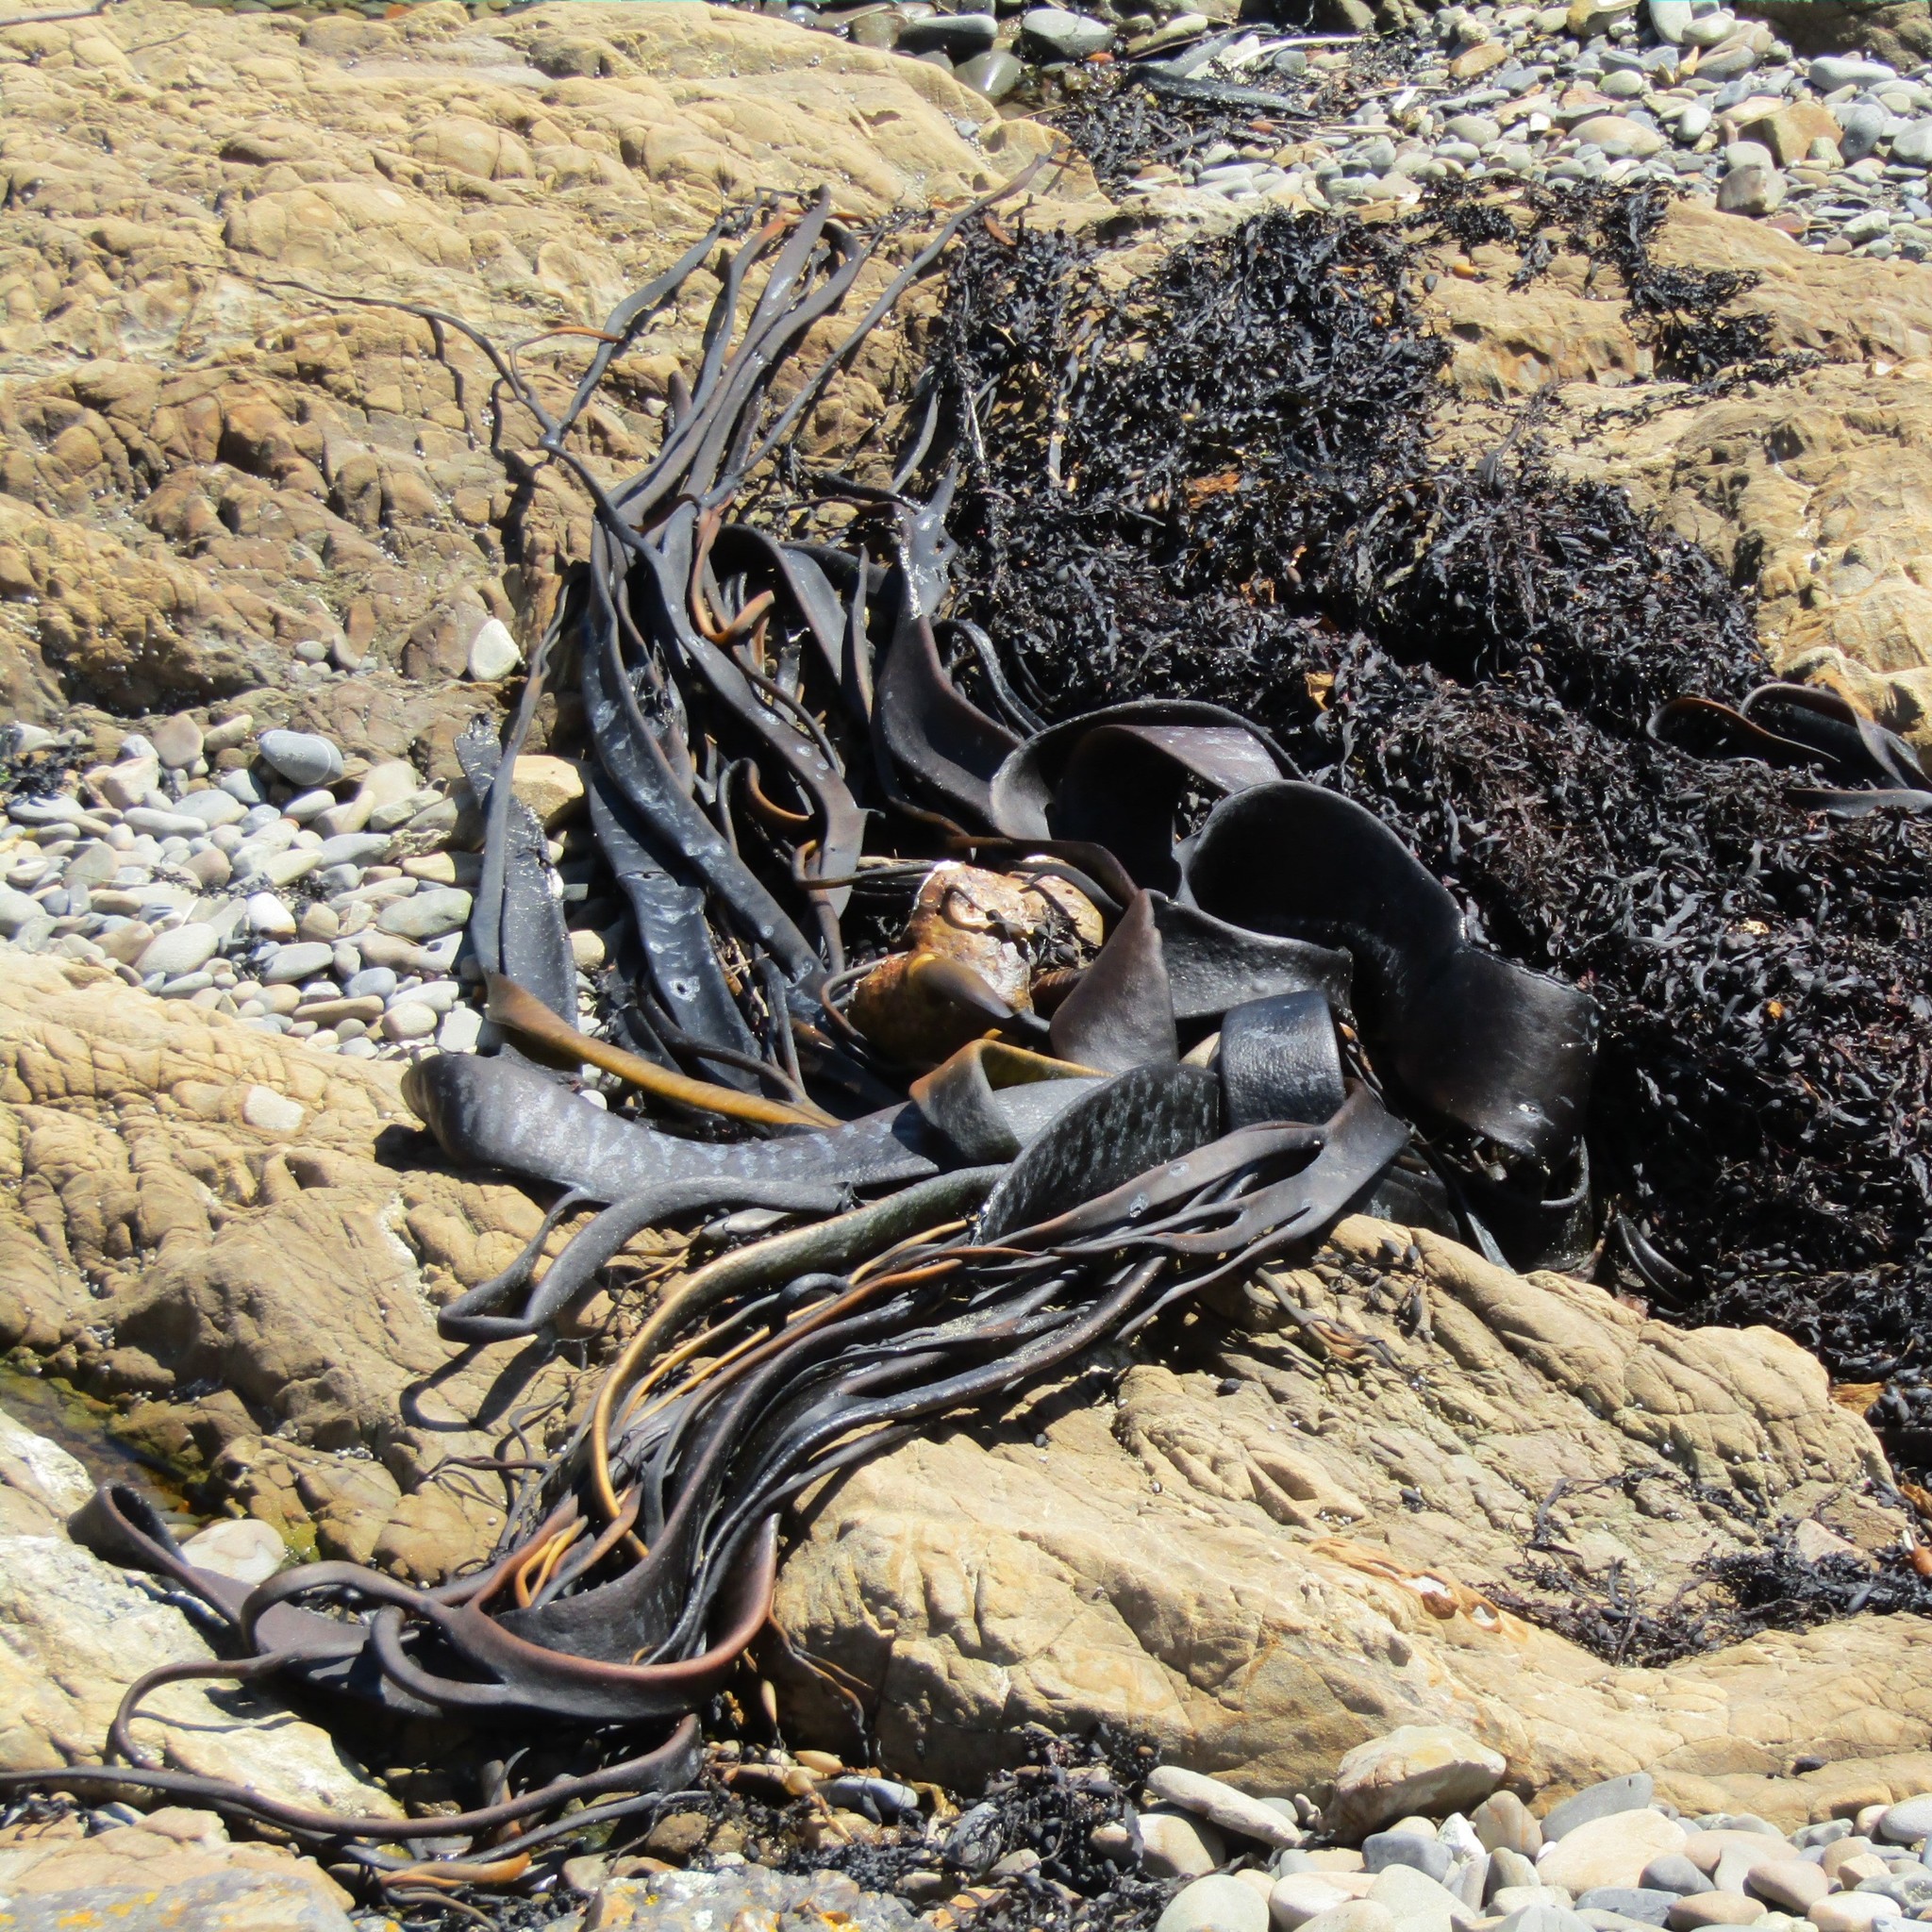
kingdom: Chromista
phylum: Ochrophyta
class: Phaeophyceae
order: Fucales
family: Durvillaeaceae
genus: Durvillaea
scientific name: Durvillaea antarctica
